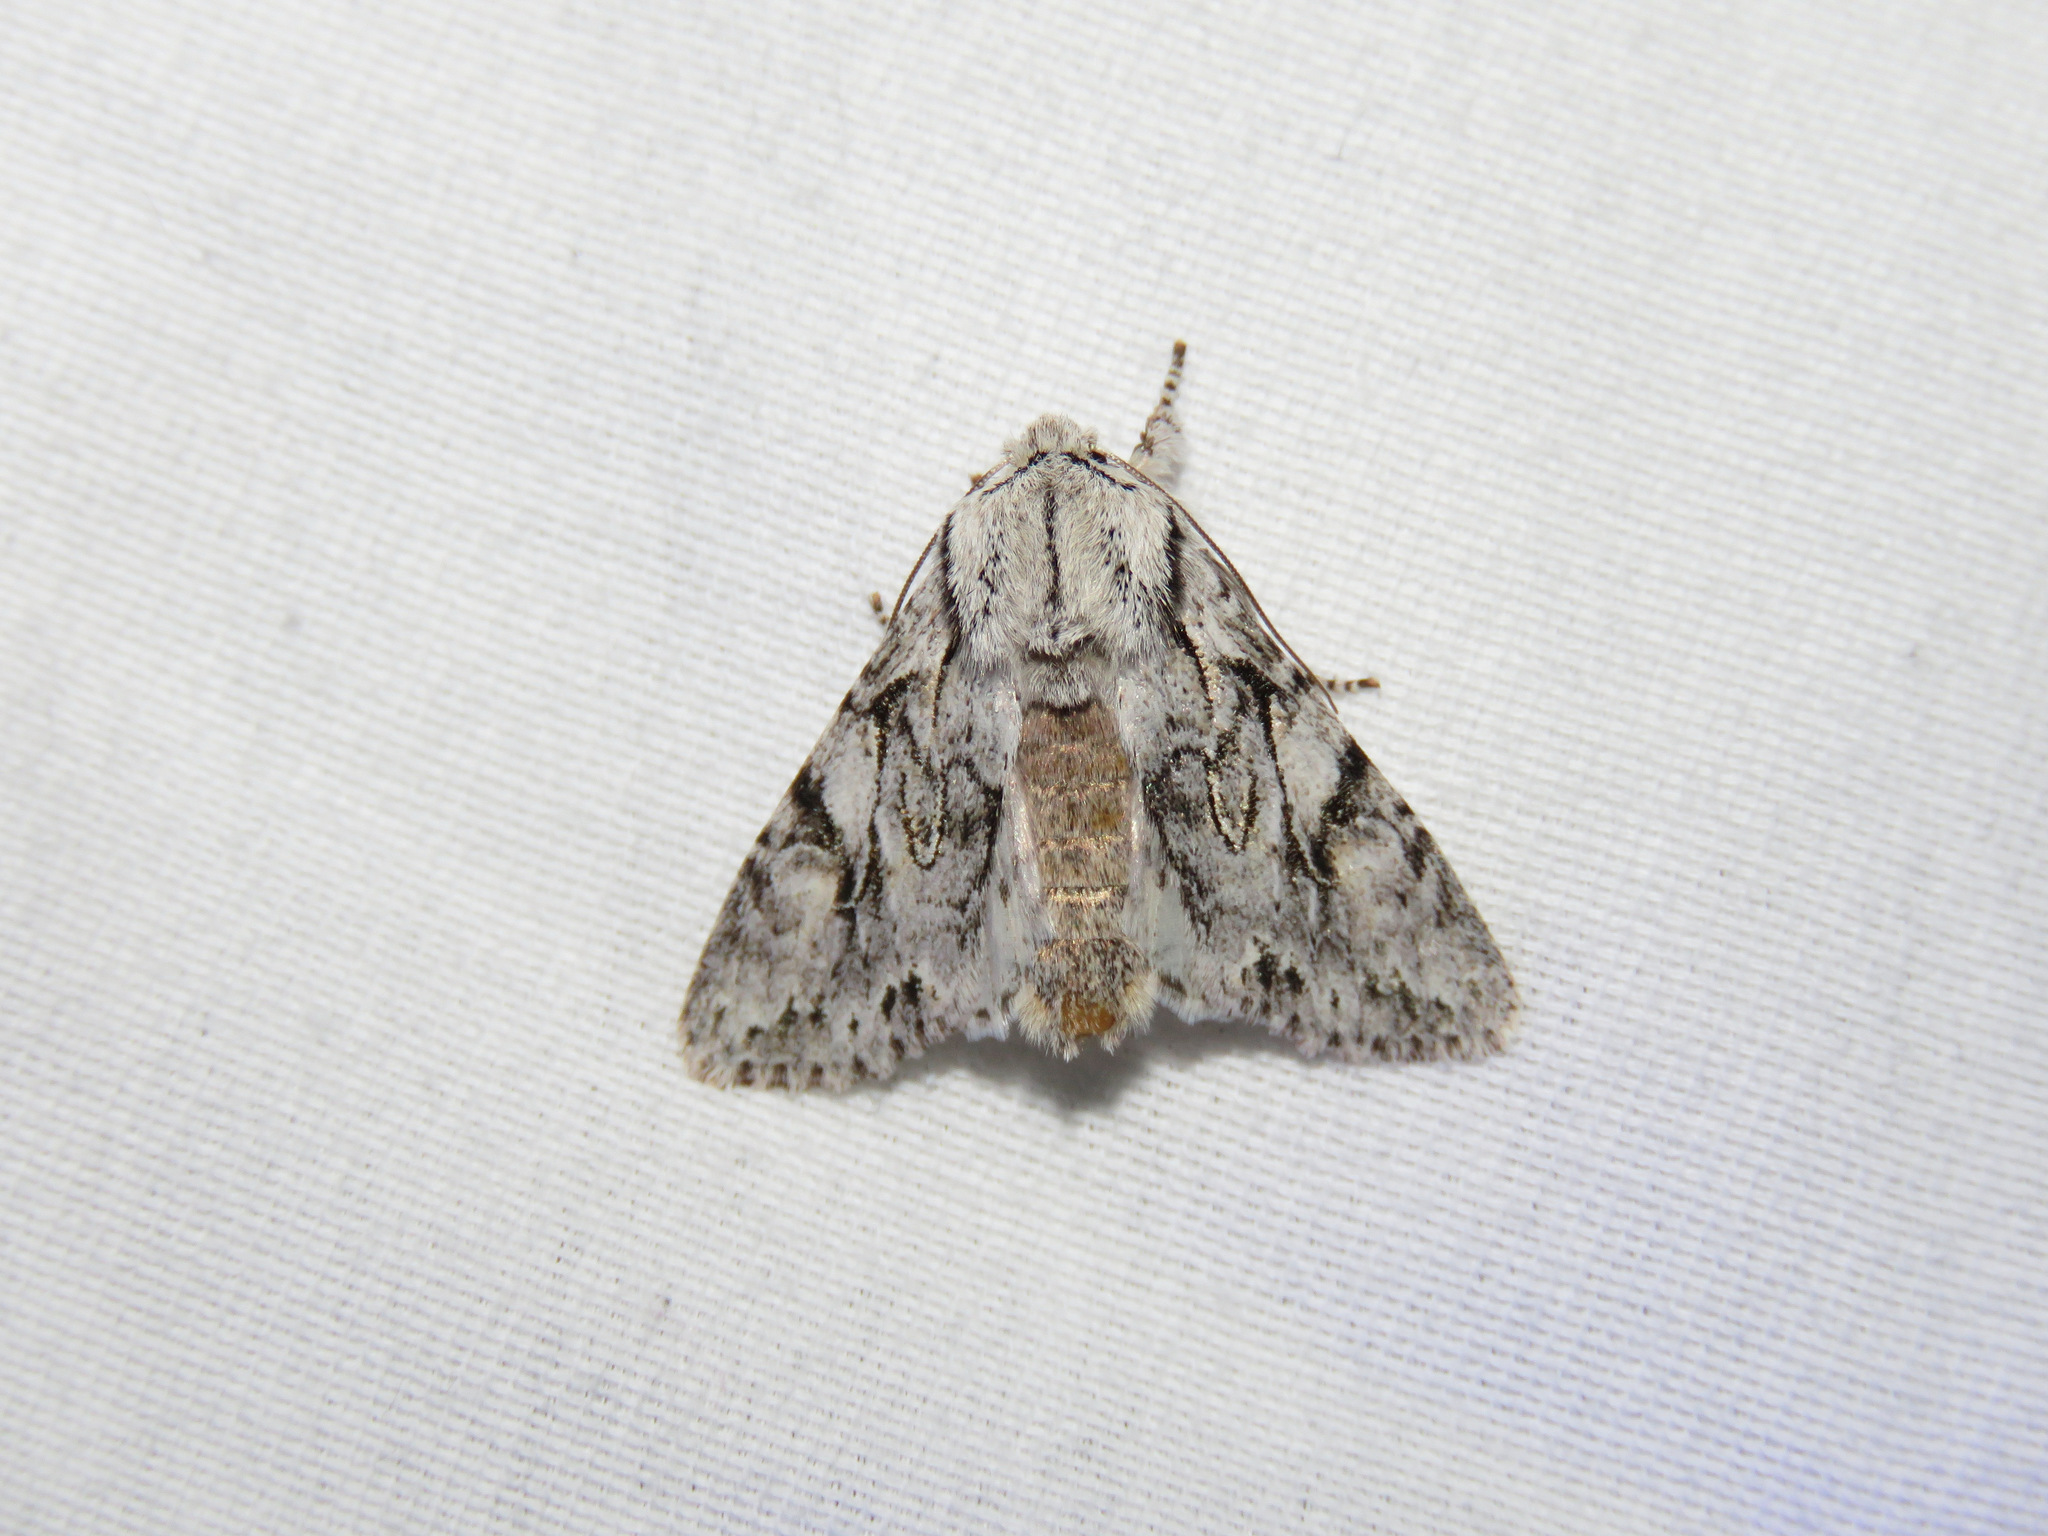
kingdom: Animalia
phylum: Arthropoda
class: Insecta
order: Lepidoptera
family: Noctuidae
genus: Egira
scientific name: Egira simplex
